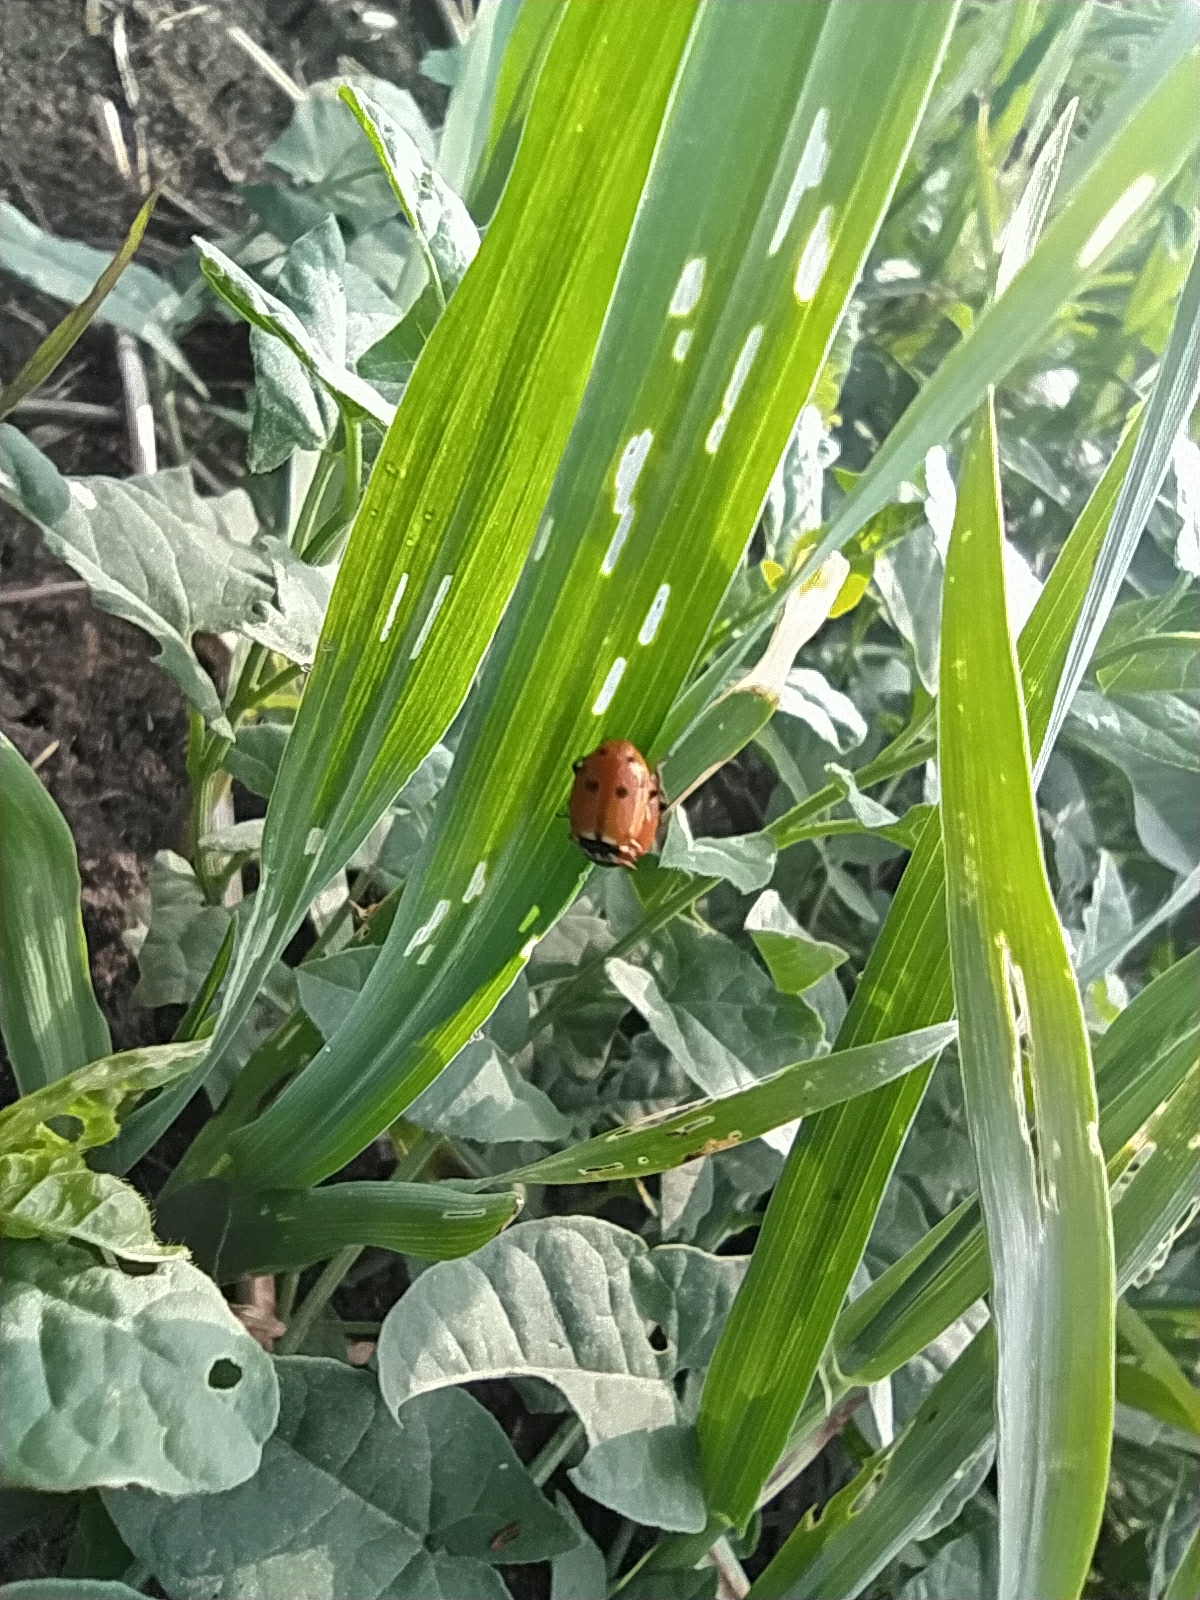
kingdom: Animalia
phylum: Arthropoda
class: Insecta
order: Coleoptera
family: Coccinellidae
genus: Hippodamia
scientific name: Hippodamia variegata
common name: Ladybird beetle
